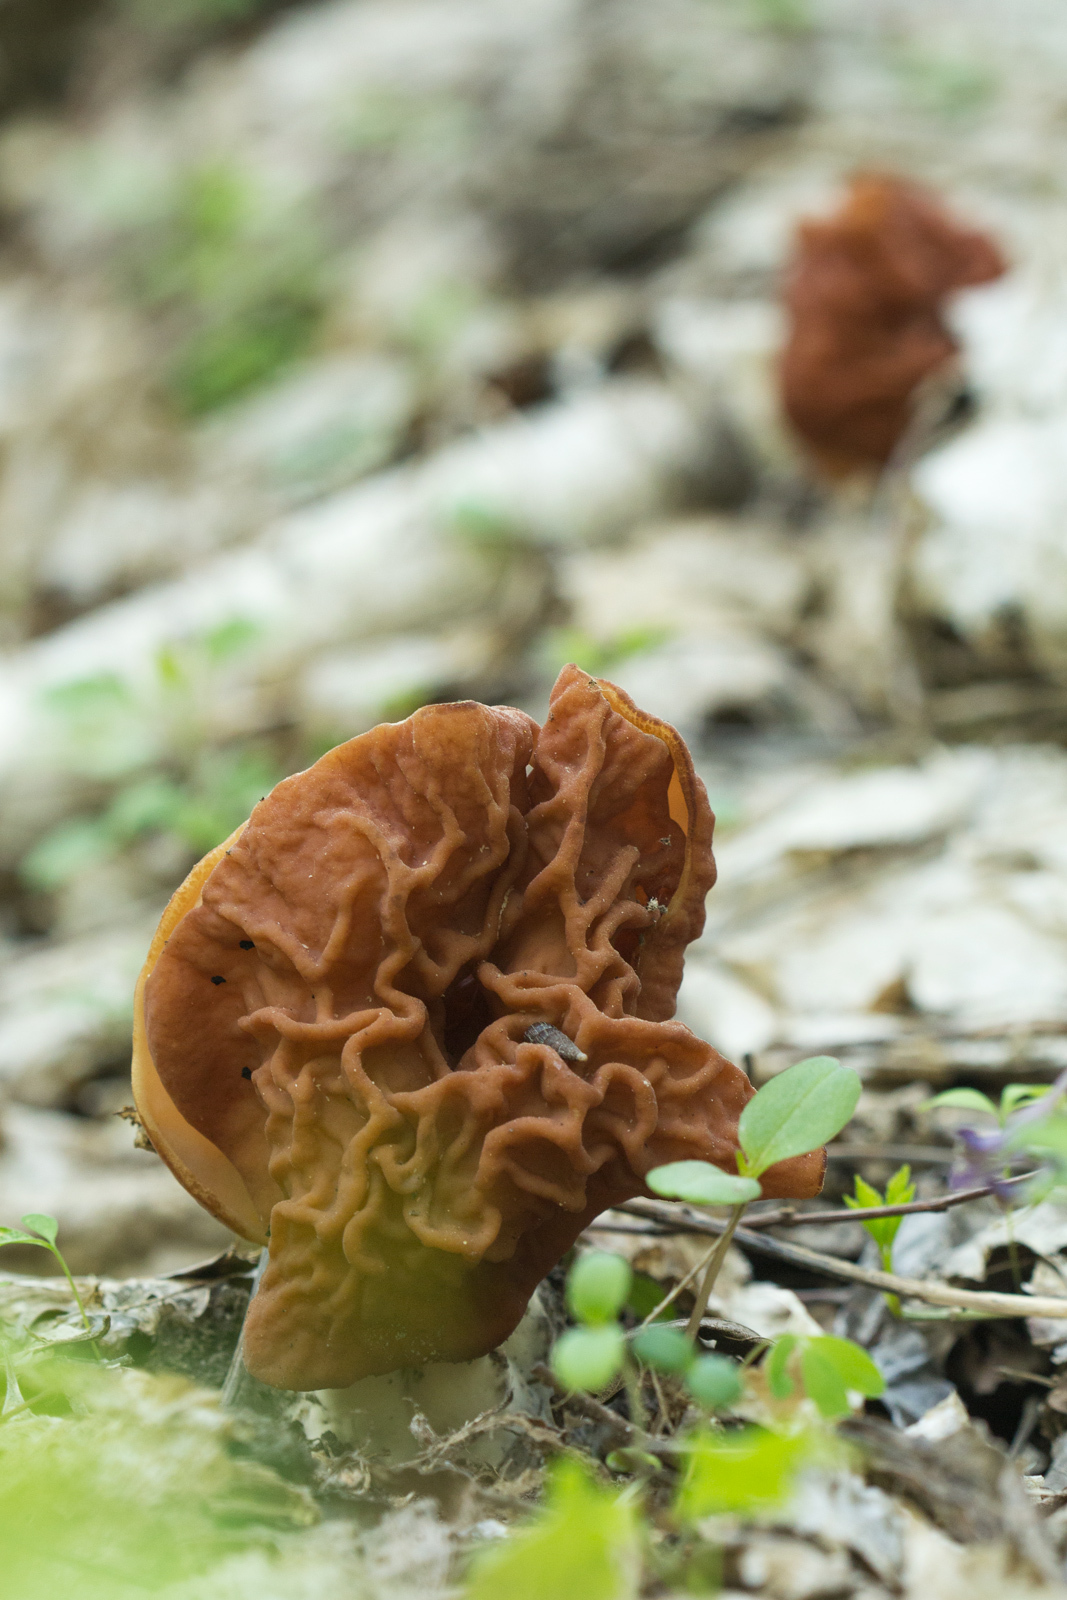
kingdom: Fungi
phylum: Ascomycota
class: Pezizomycetes
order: Pezizales
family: Discinaceae
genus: Discina
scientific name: Discina fastigiata
